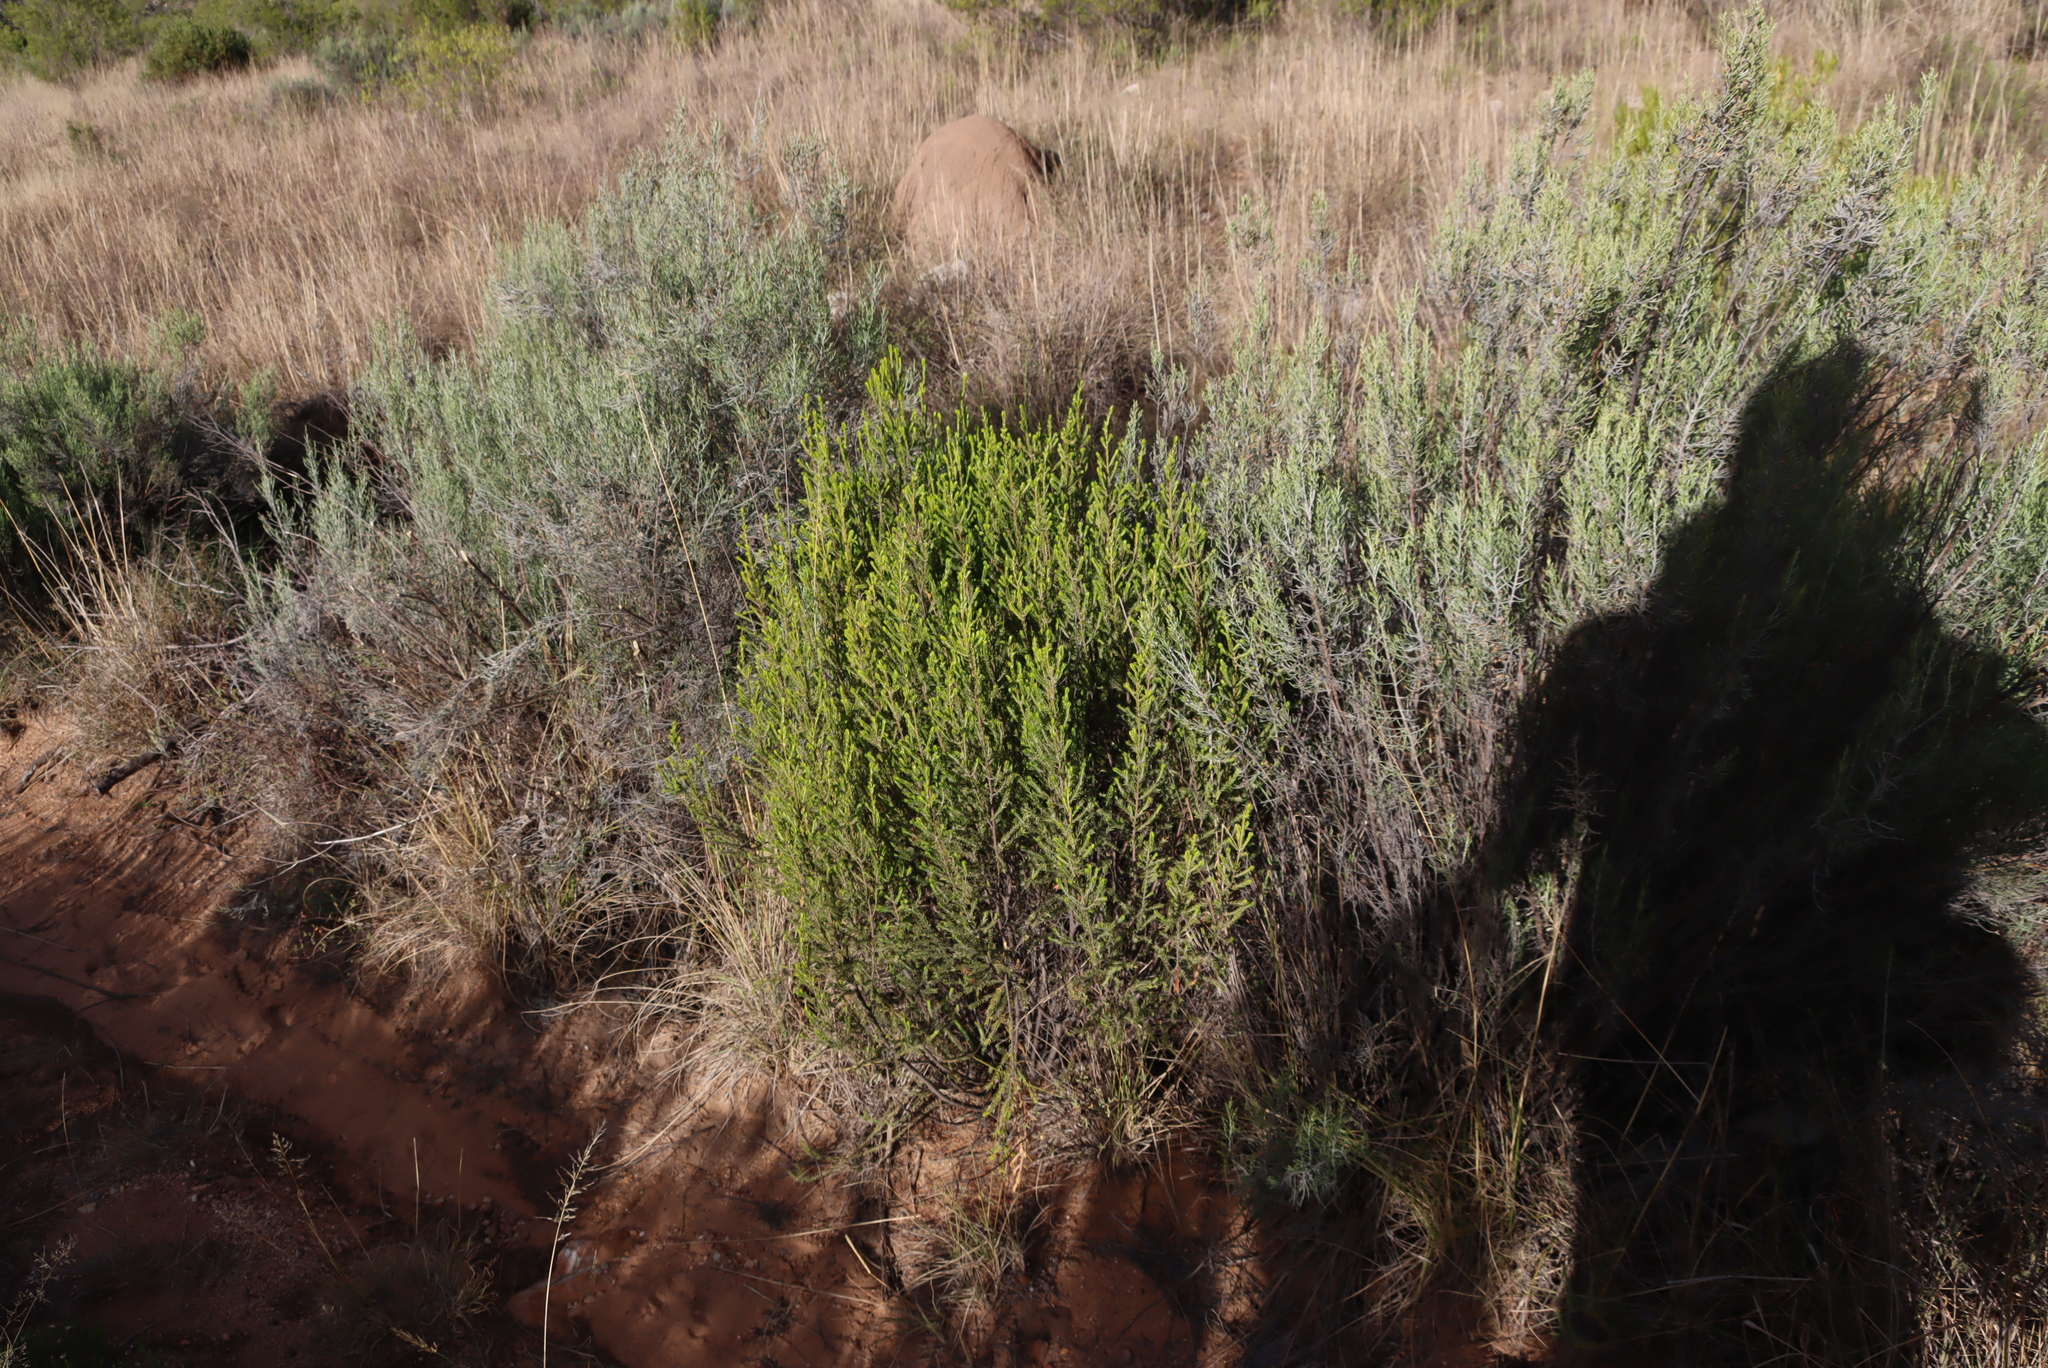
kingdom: Plantae
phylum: Tracheophyta
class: Magnoliopsida
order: Malvales
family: Thymelaeaceae
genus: Passerina
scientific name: Passerina obtusifolia
